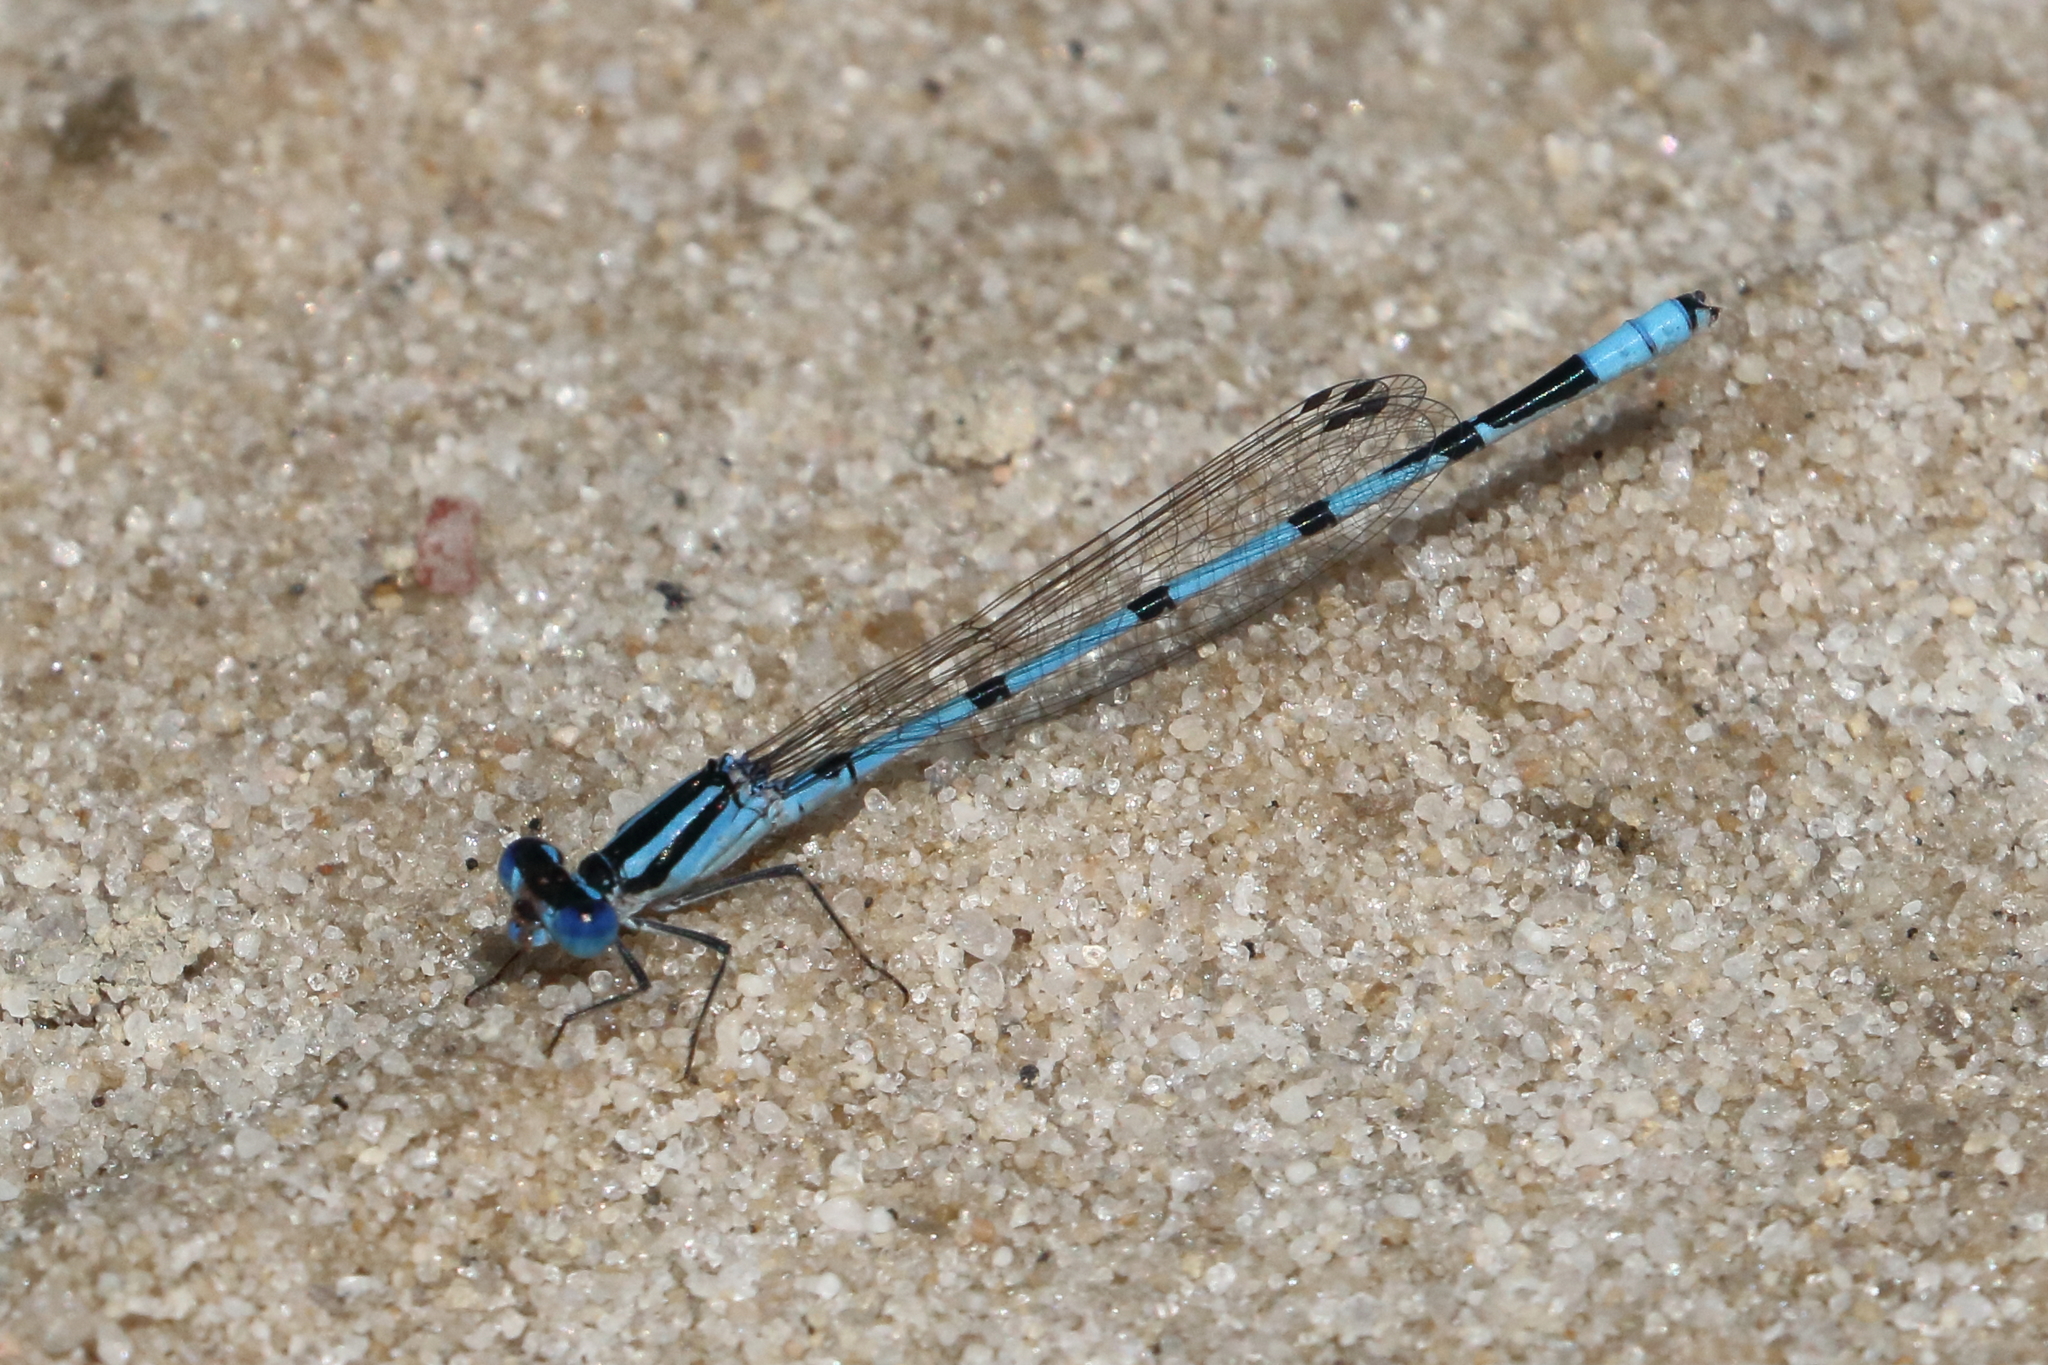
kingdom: Animalia
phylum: Arthropoda
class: Insecta
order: Odonata
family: Coenagrionidae
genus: Enallagma
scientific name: Enallagma doubledayi
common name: Atlantic bluet
